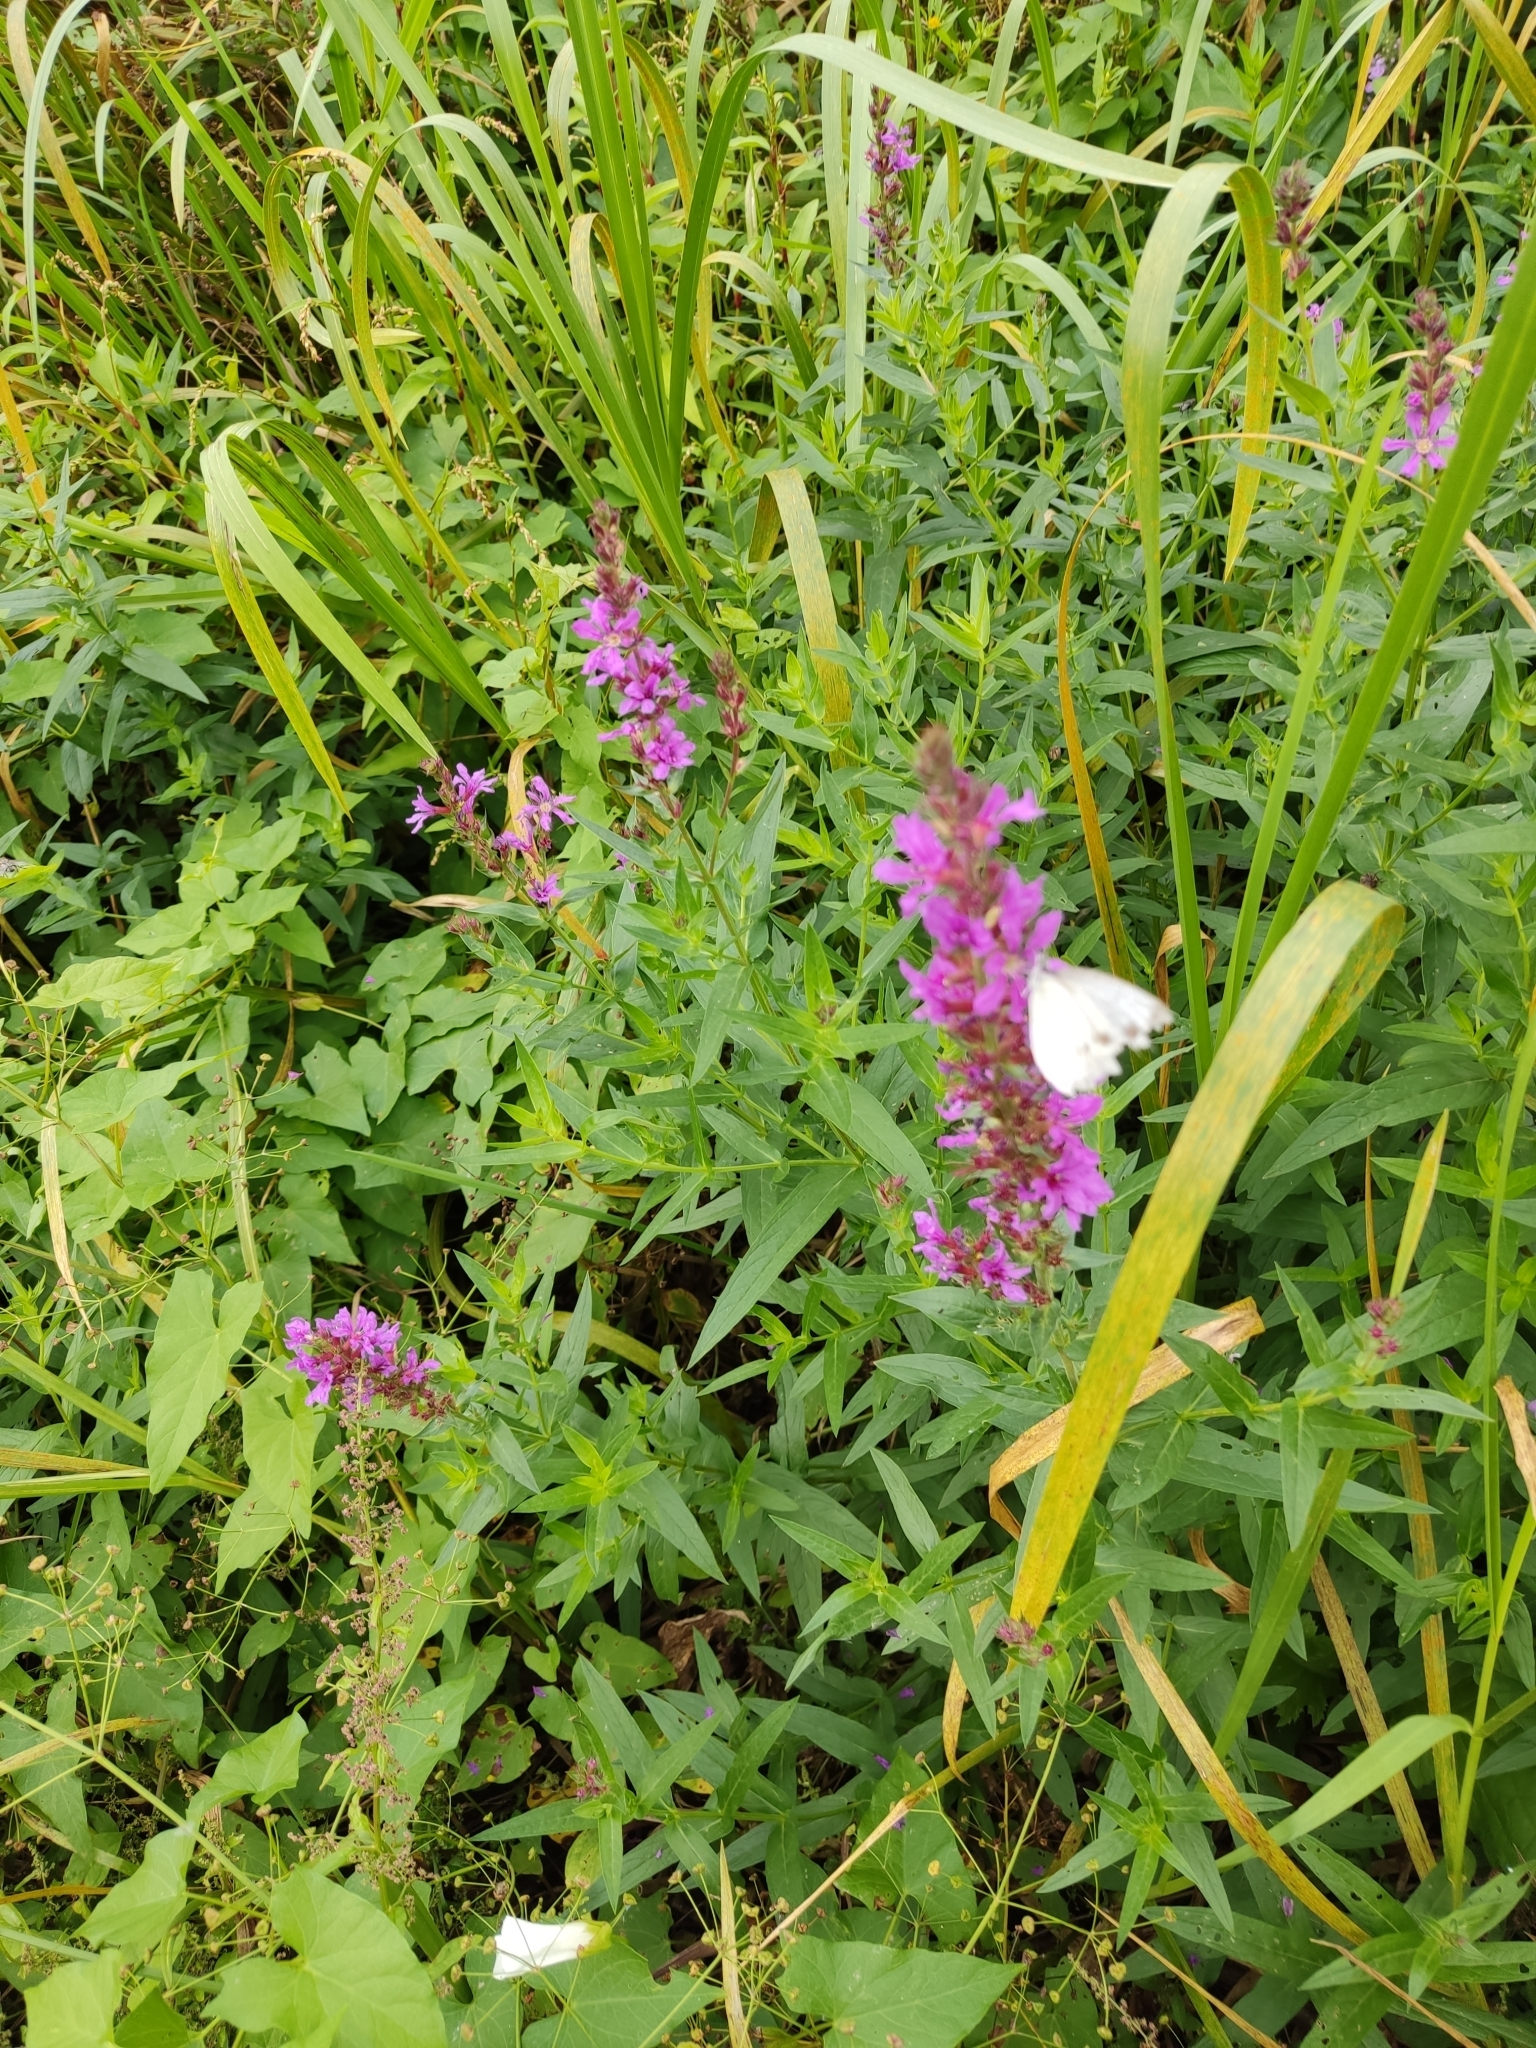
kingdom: Plantae
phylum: Tracheophyta
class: Magnoliopsida
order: Myrtales
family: Lythraceae
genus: Lythrum
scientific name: Lythrum salicaria
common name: Purple loosestrife
